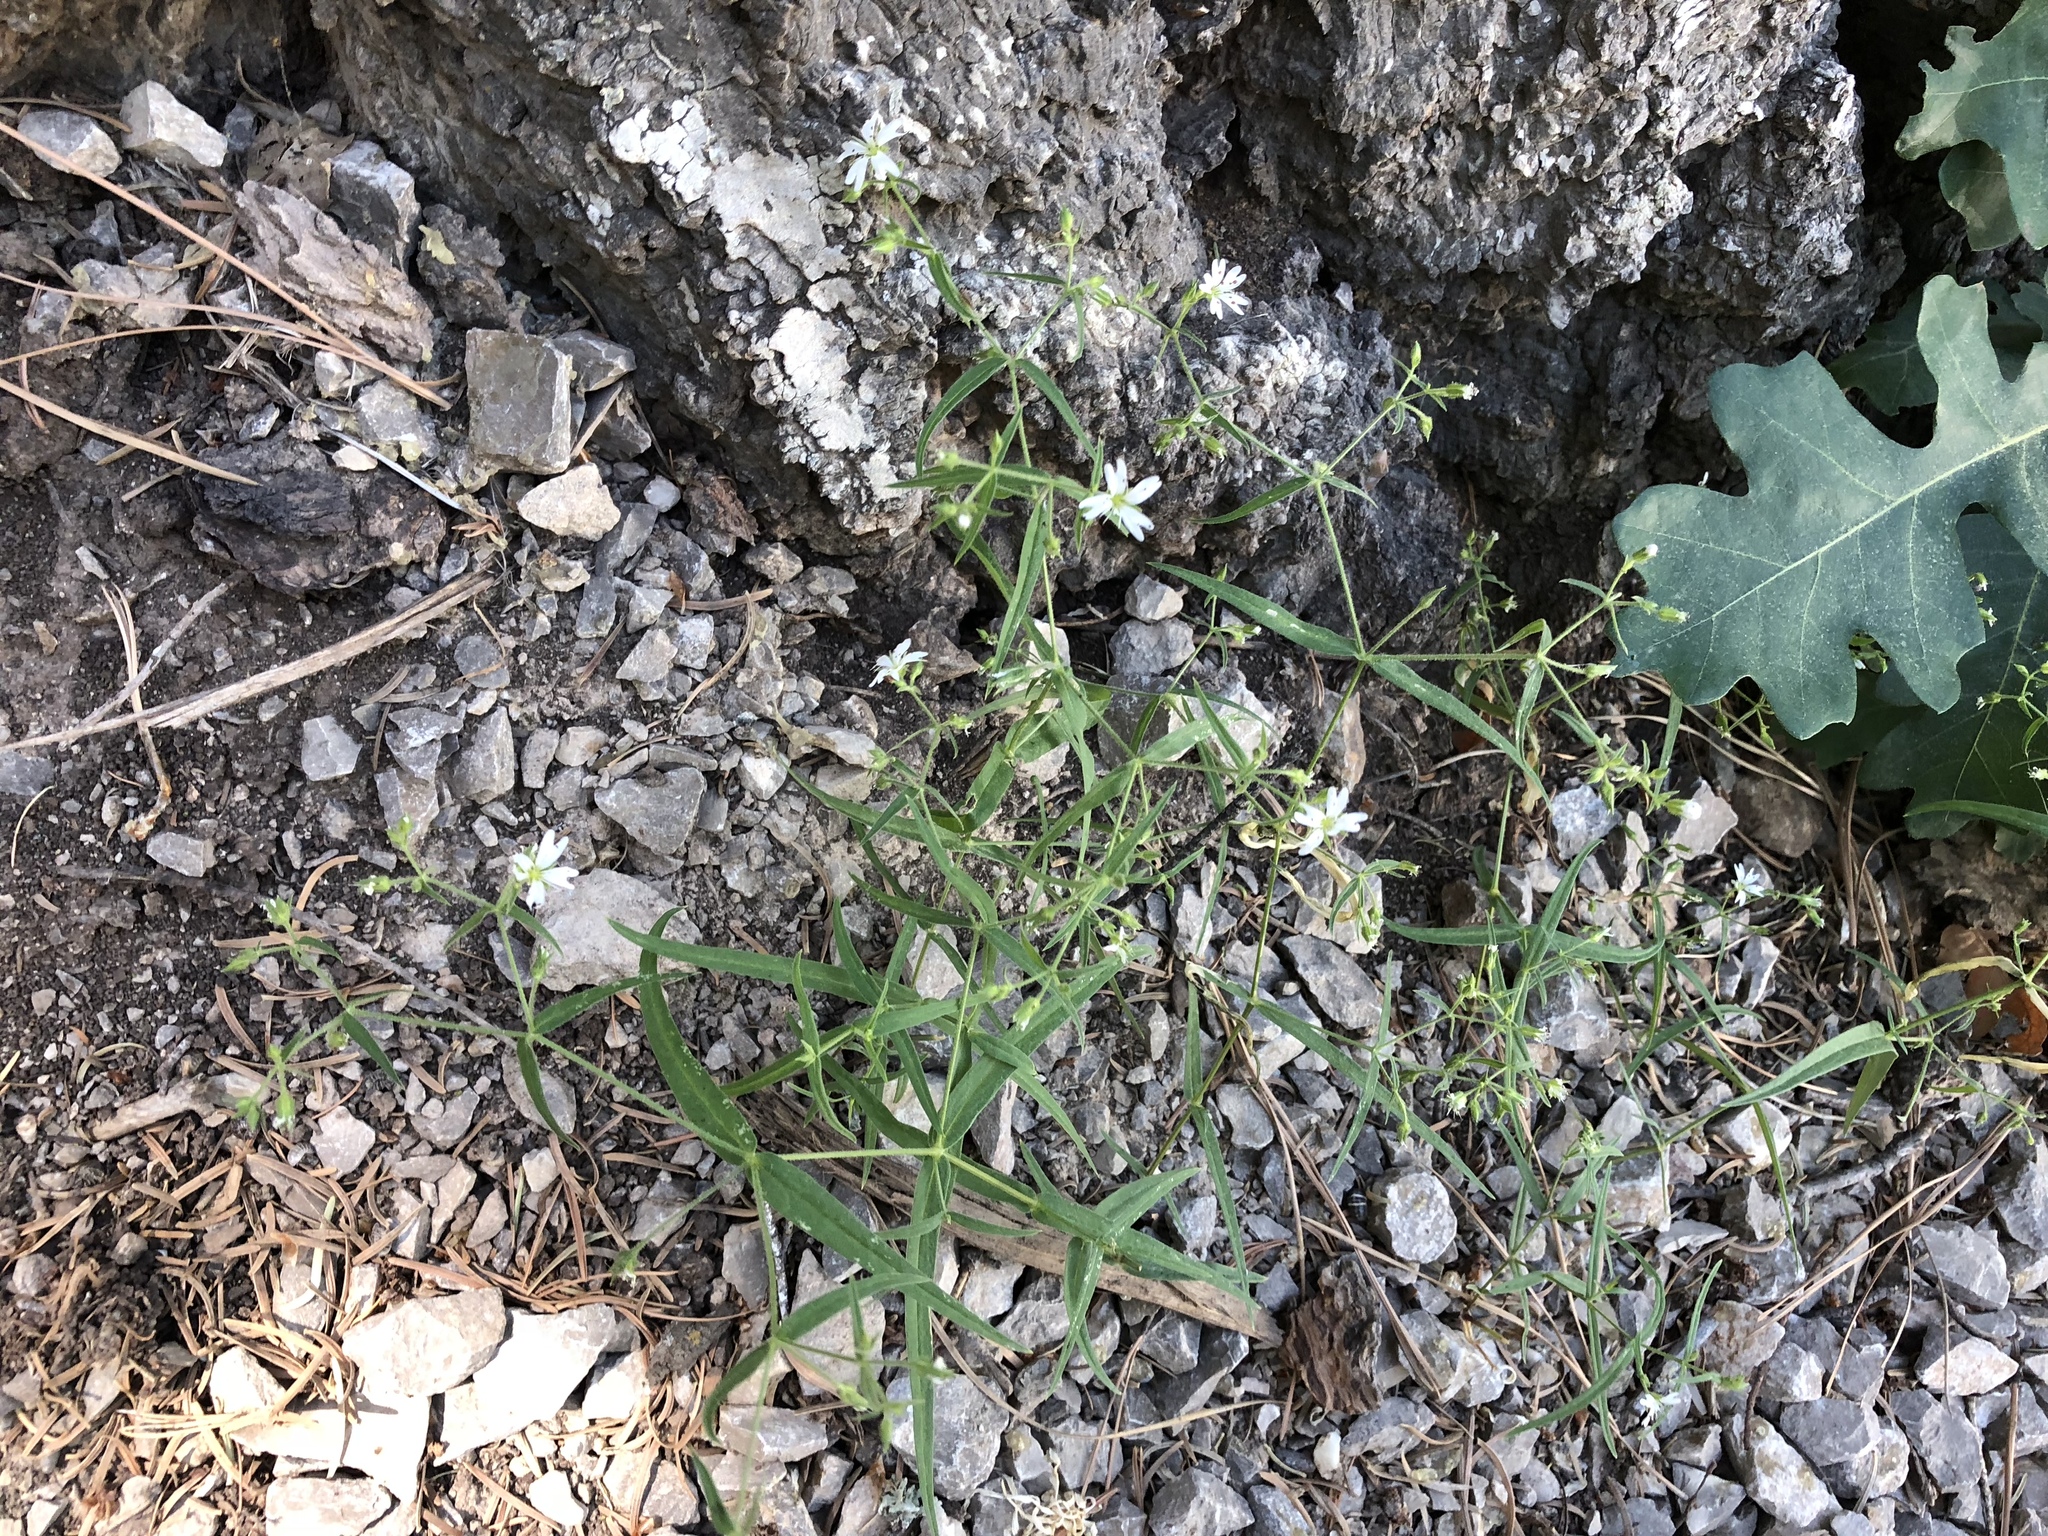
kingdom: Plantae
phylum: Tracheophyta
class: Magnoliopsida
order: Caryophyllales
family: Caryophyllaceae
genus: Schizotechium
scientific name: Schizotechium jamesianum
